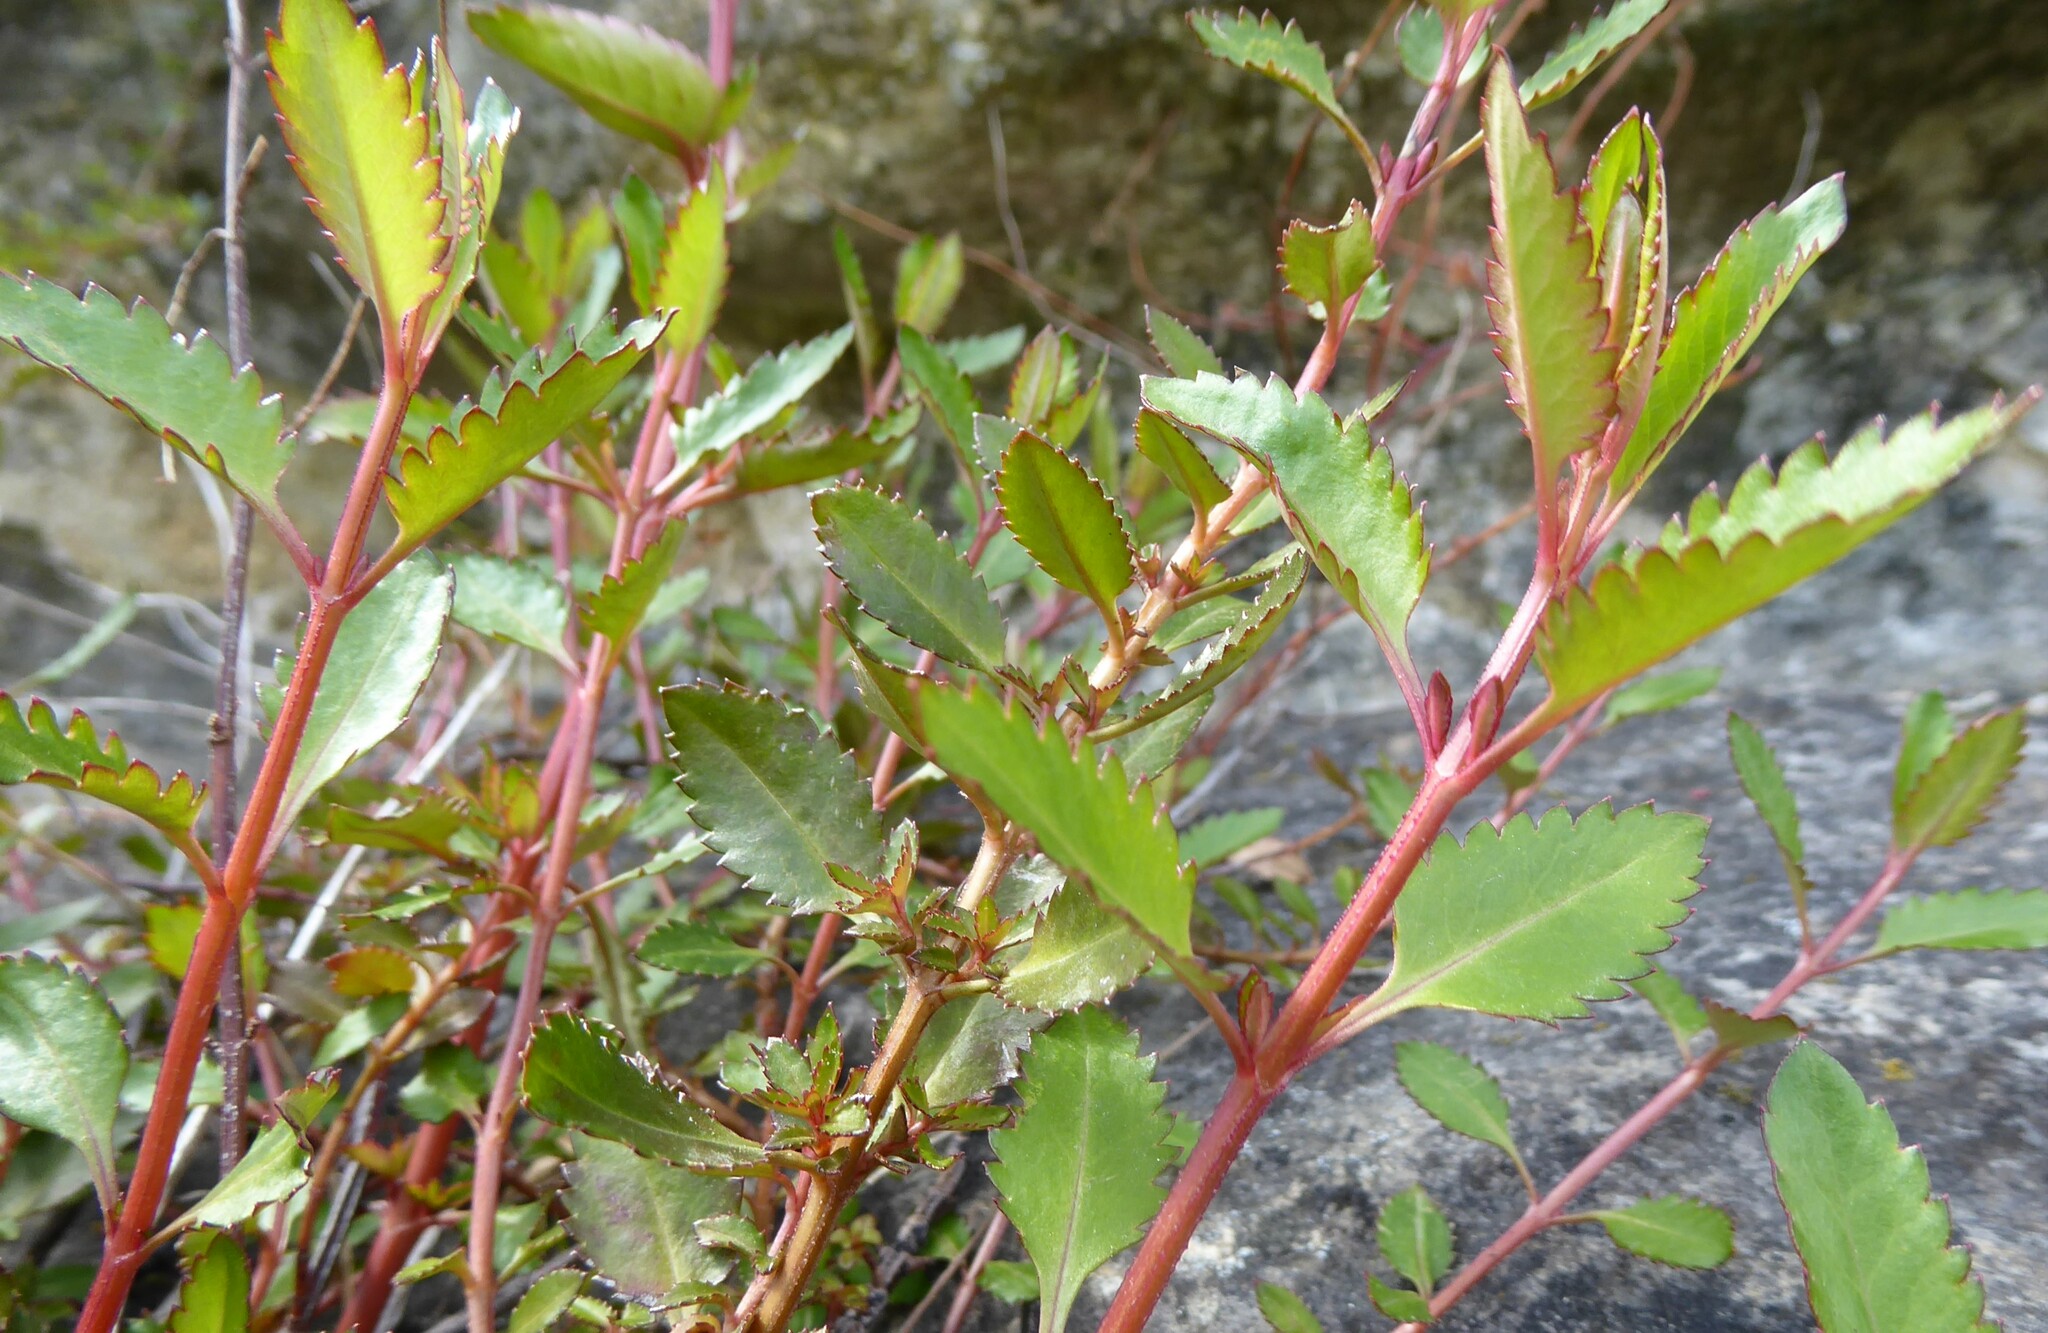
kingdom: Plantae
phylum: Tracheophyta
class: Magnoliopsida
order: Saxifragales
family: Haloragaceae
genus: Haloragis
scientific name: Haloragis erecta
